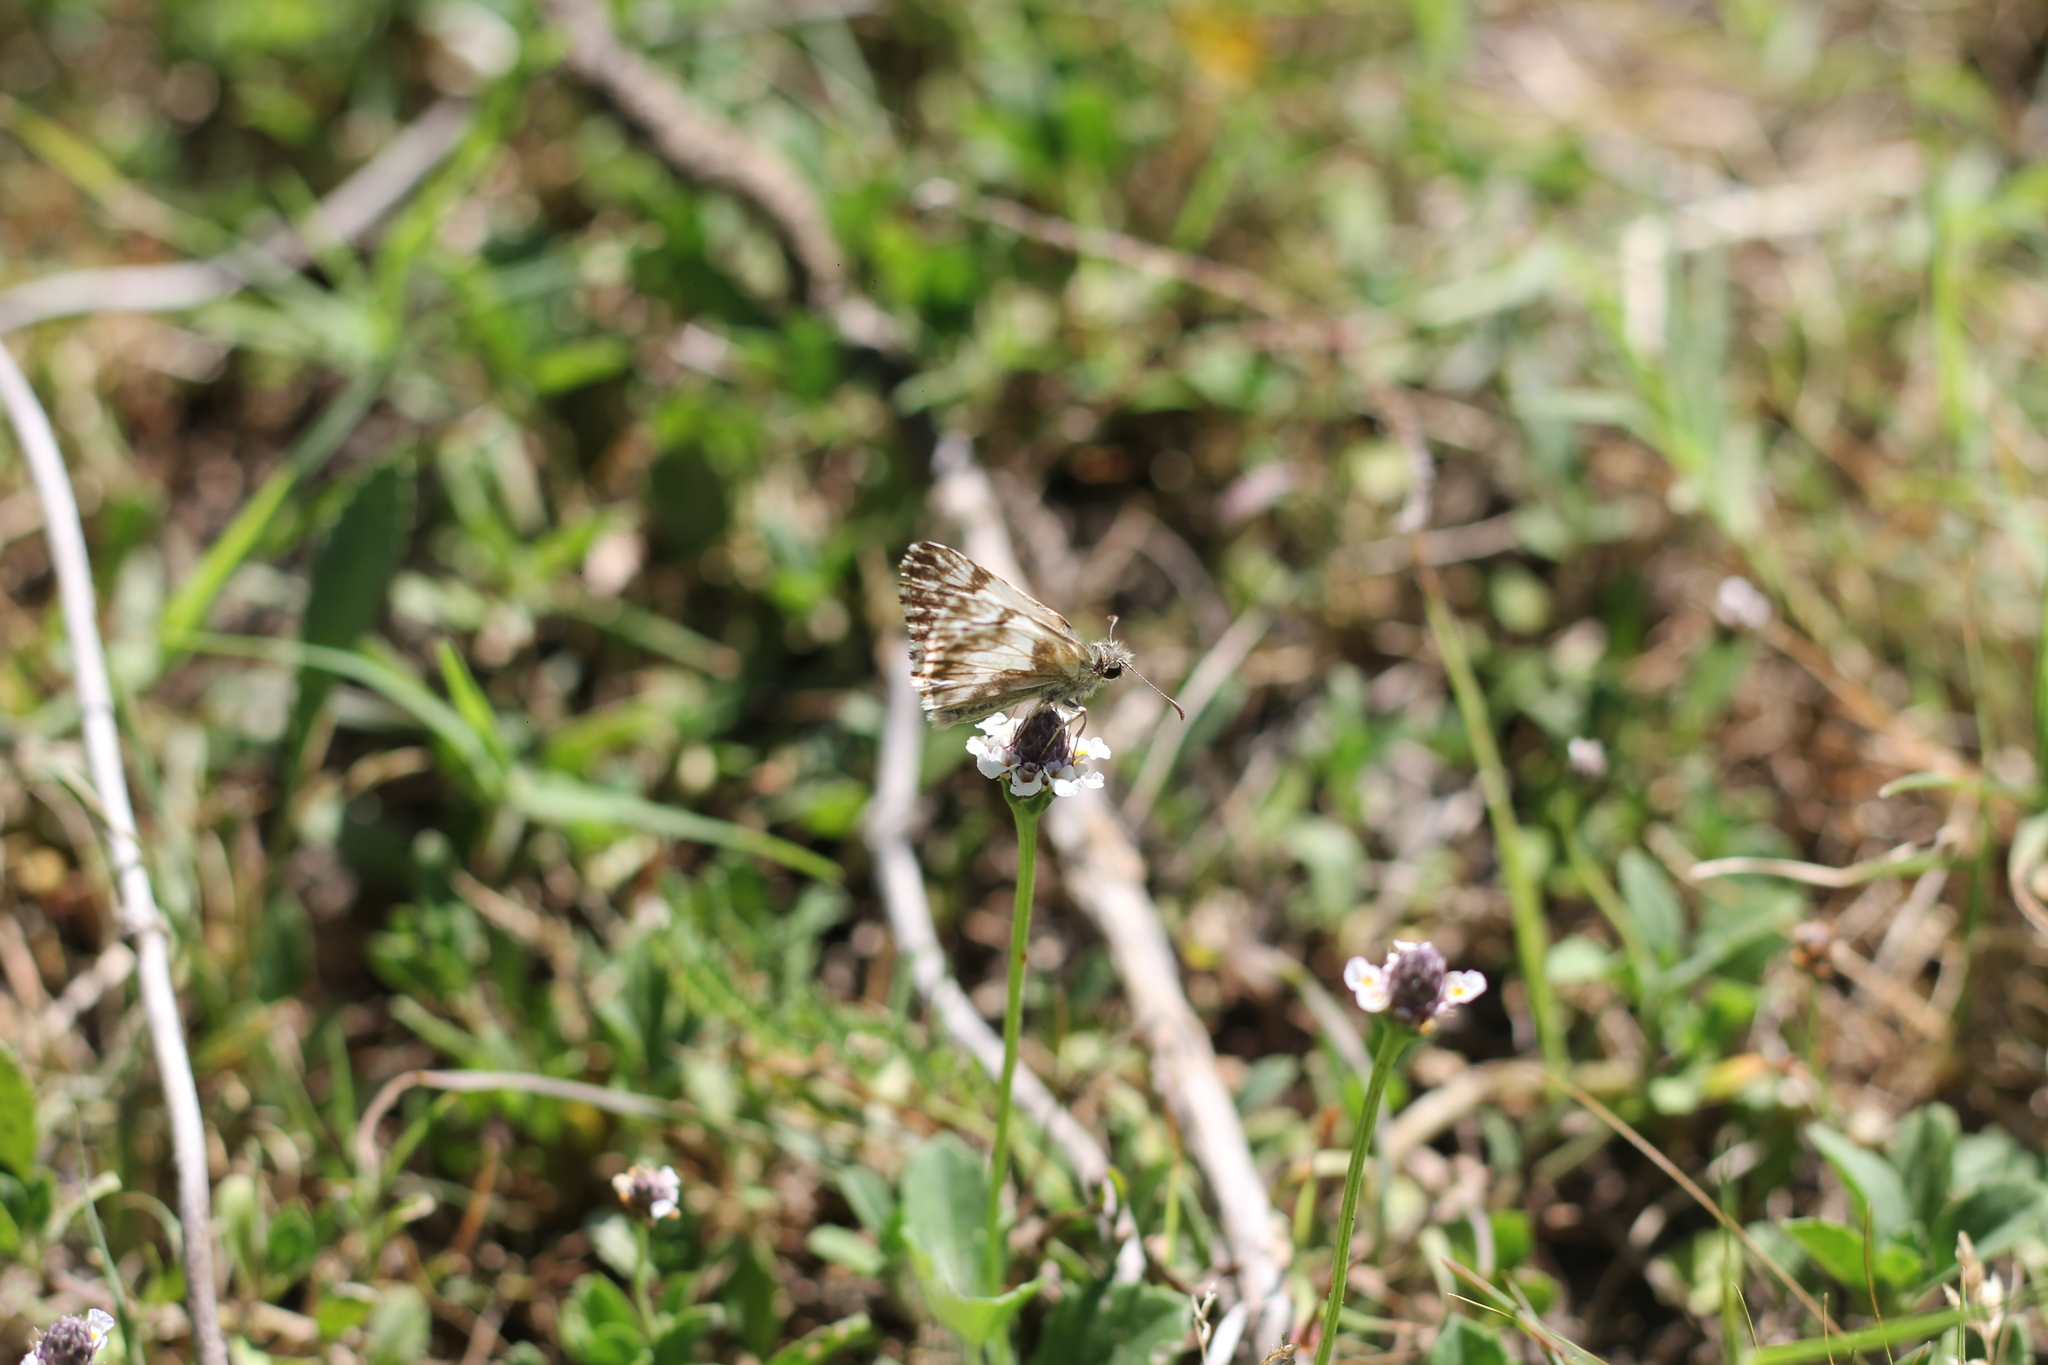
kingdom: Animalia
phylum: Arthropoda
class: Insecta
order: Lepidoptera
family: Hesperiidae
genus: Heliopetes
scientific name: Heliopetes omrina
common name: Stained white-skipper
